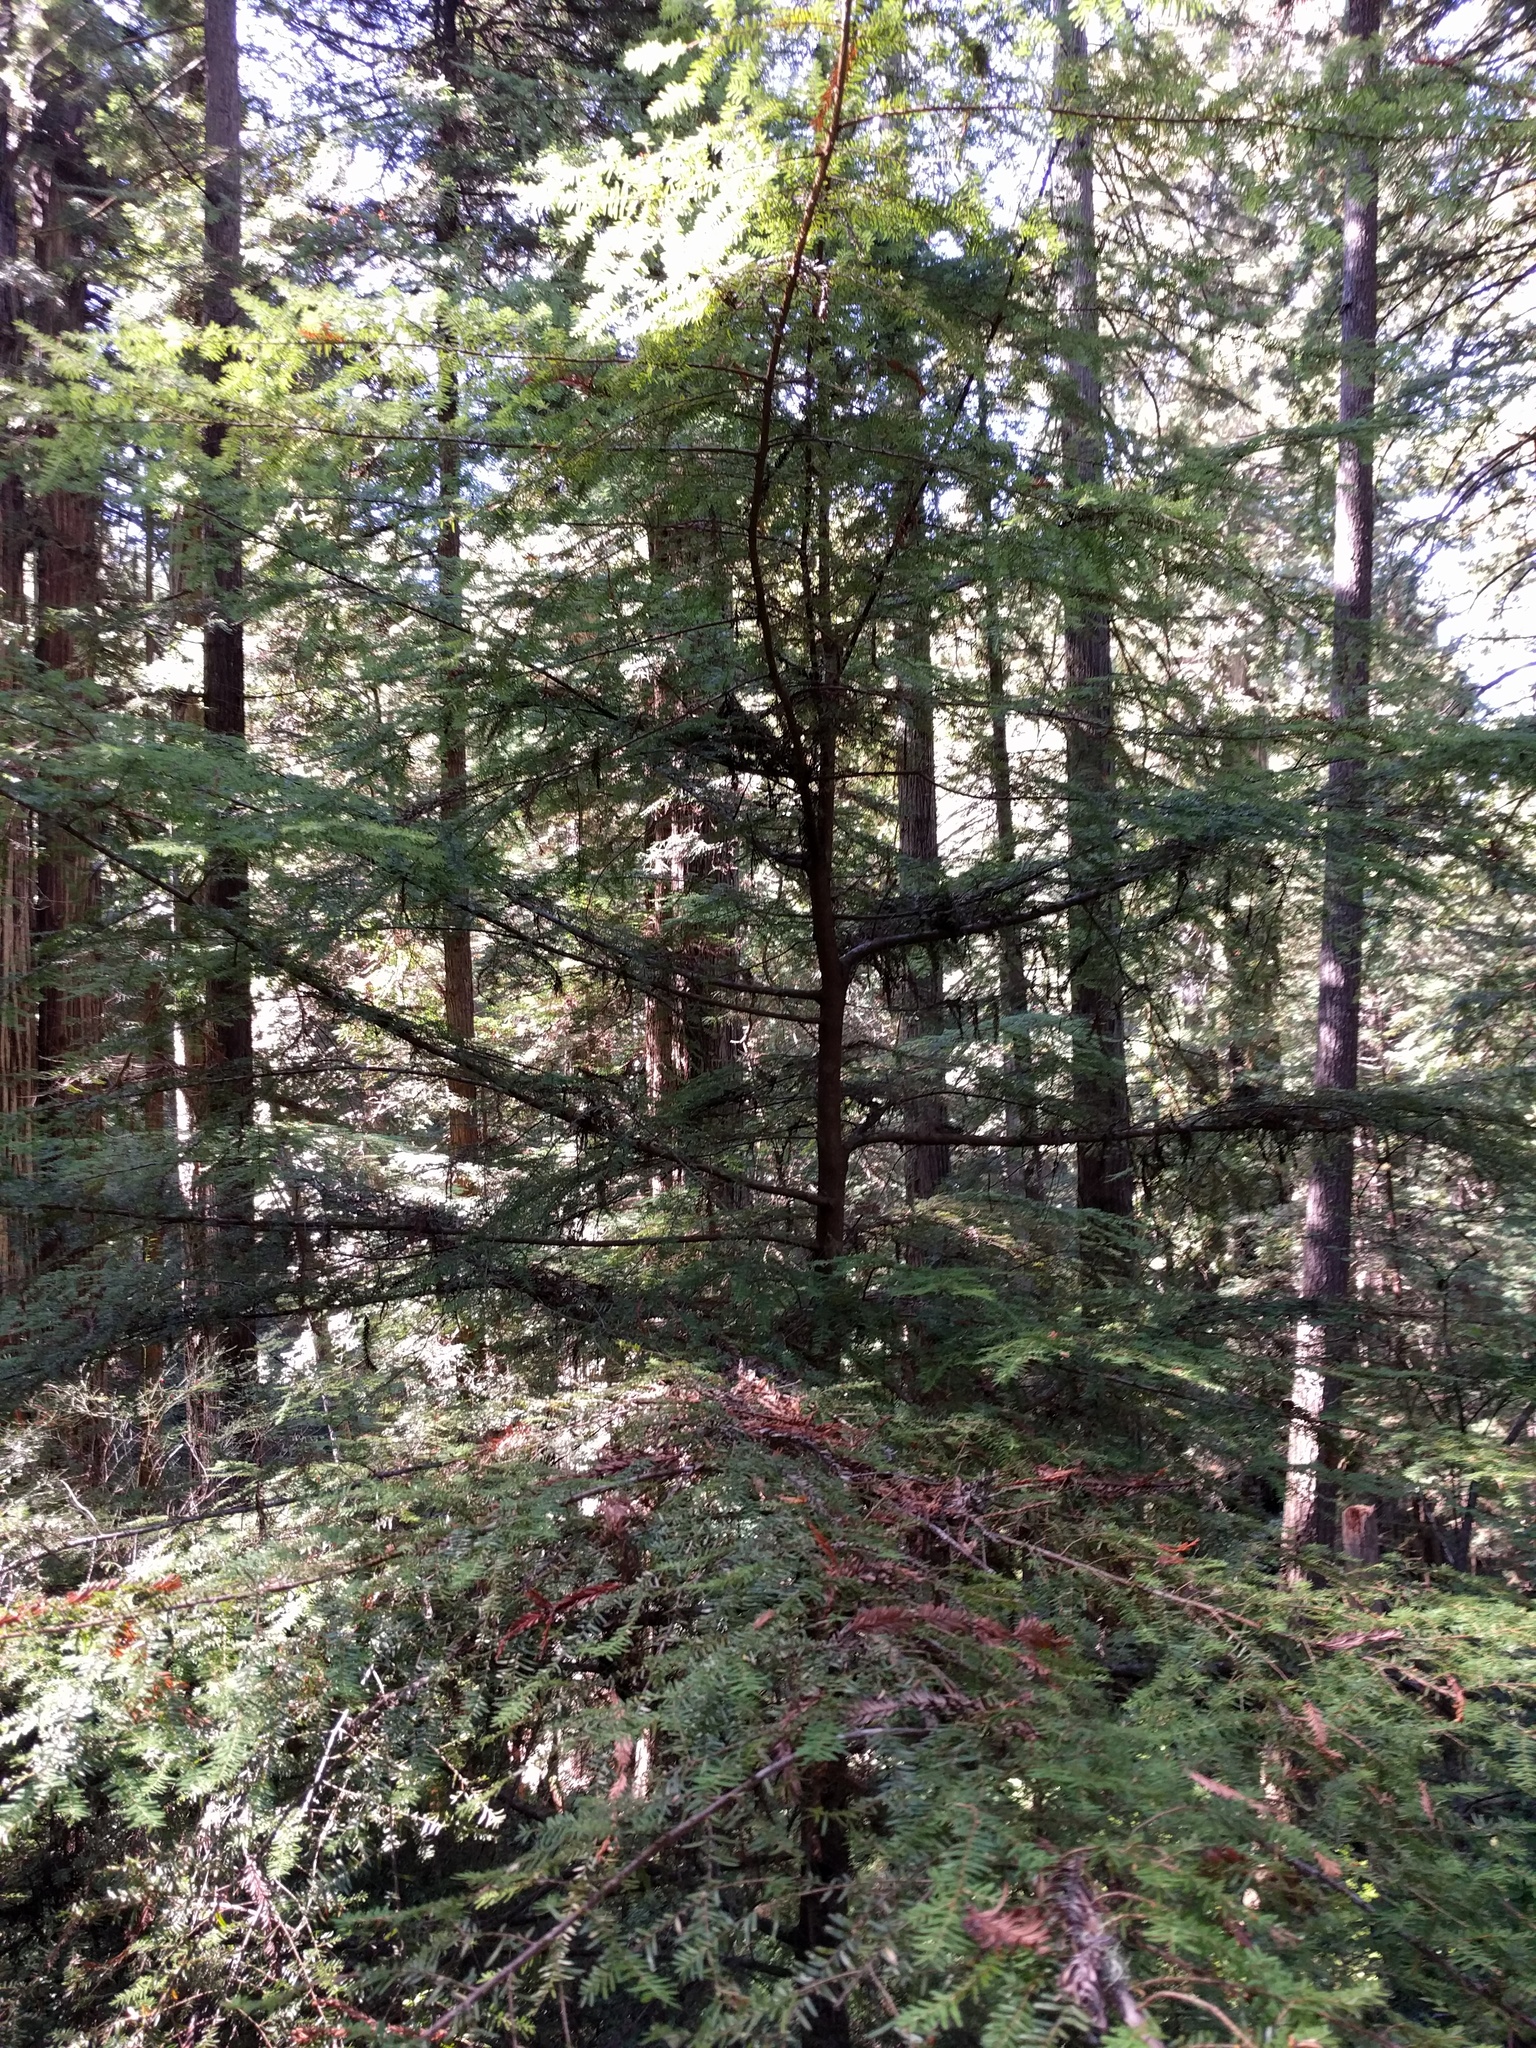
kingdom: Plantae
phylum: Tracheophyta
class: Pinopsida
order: Pinales
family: Pinaceae
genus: Tsuga
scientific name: Tsuga heterophylla
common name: Western hemlock
